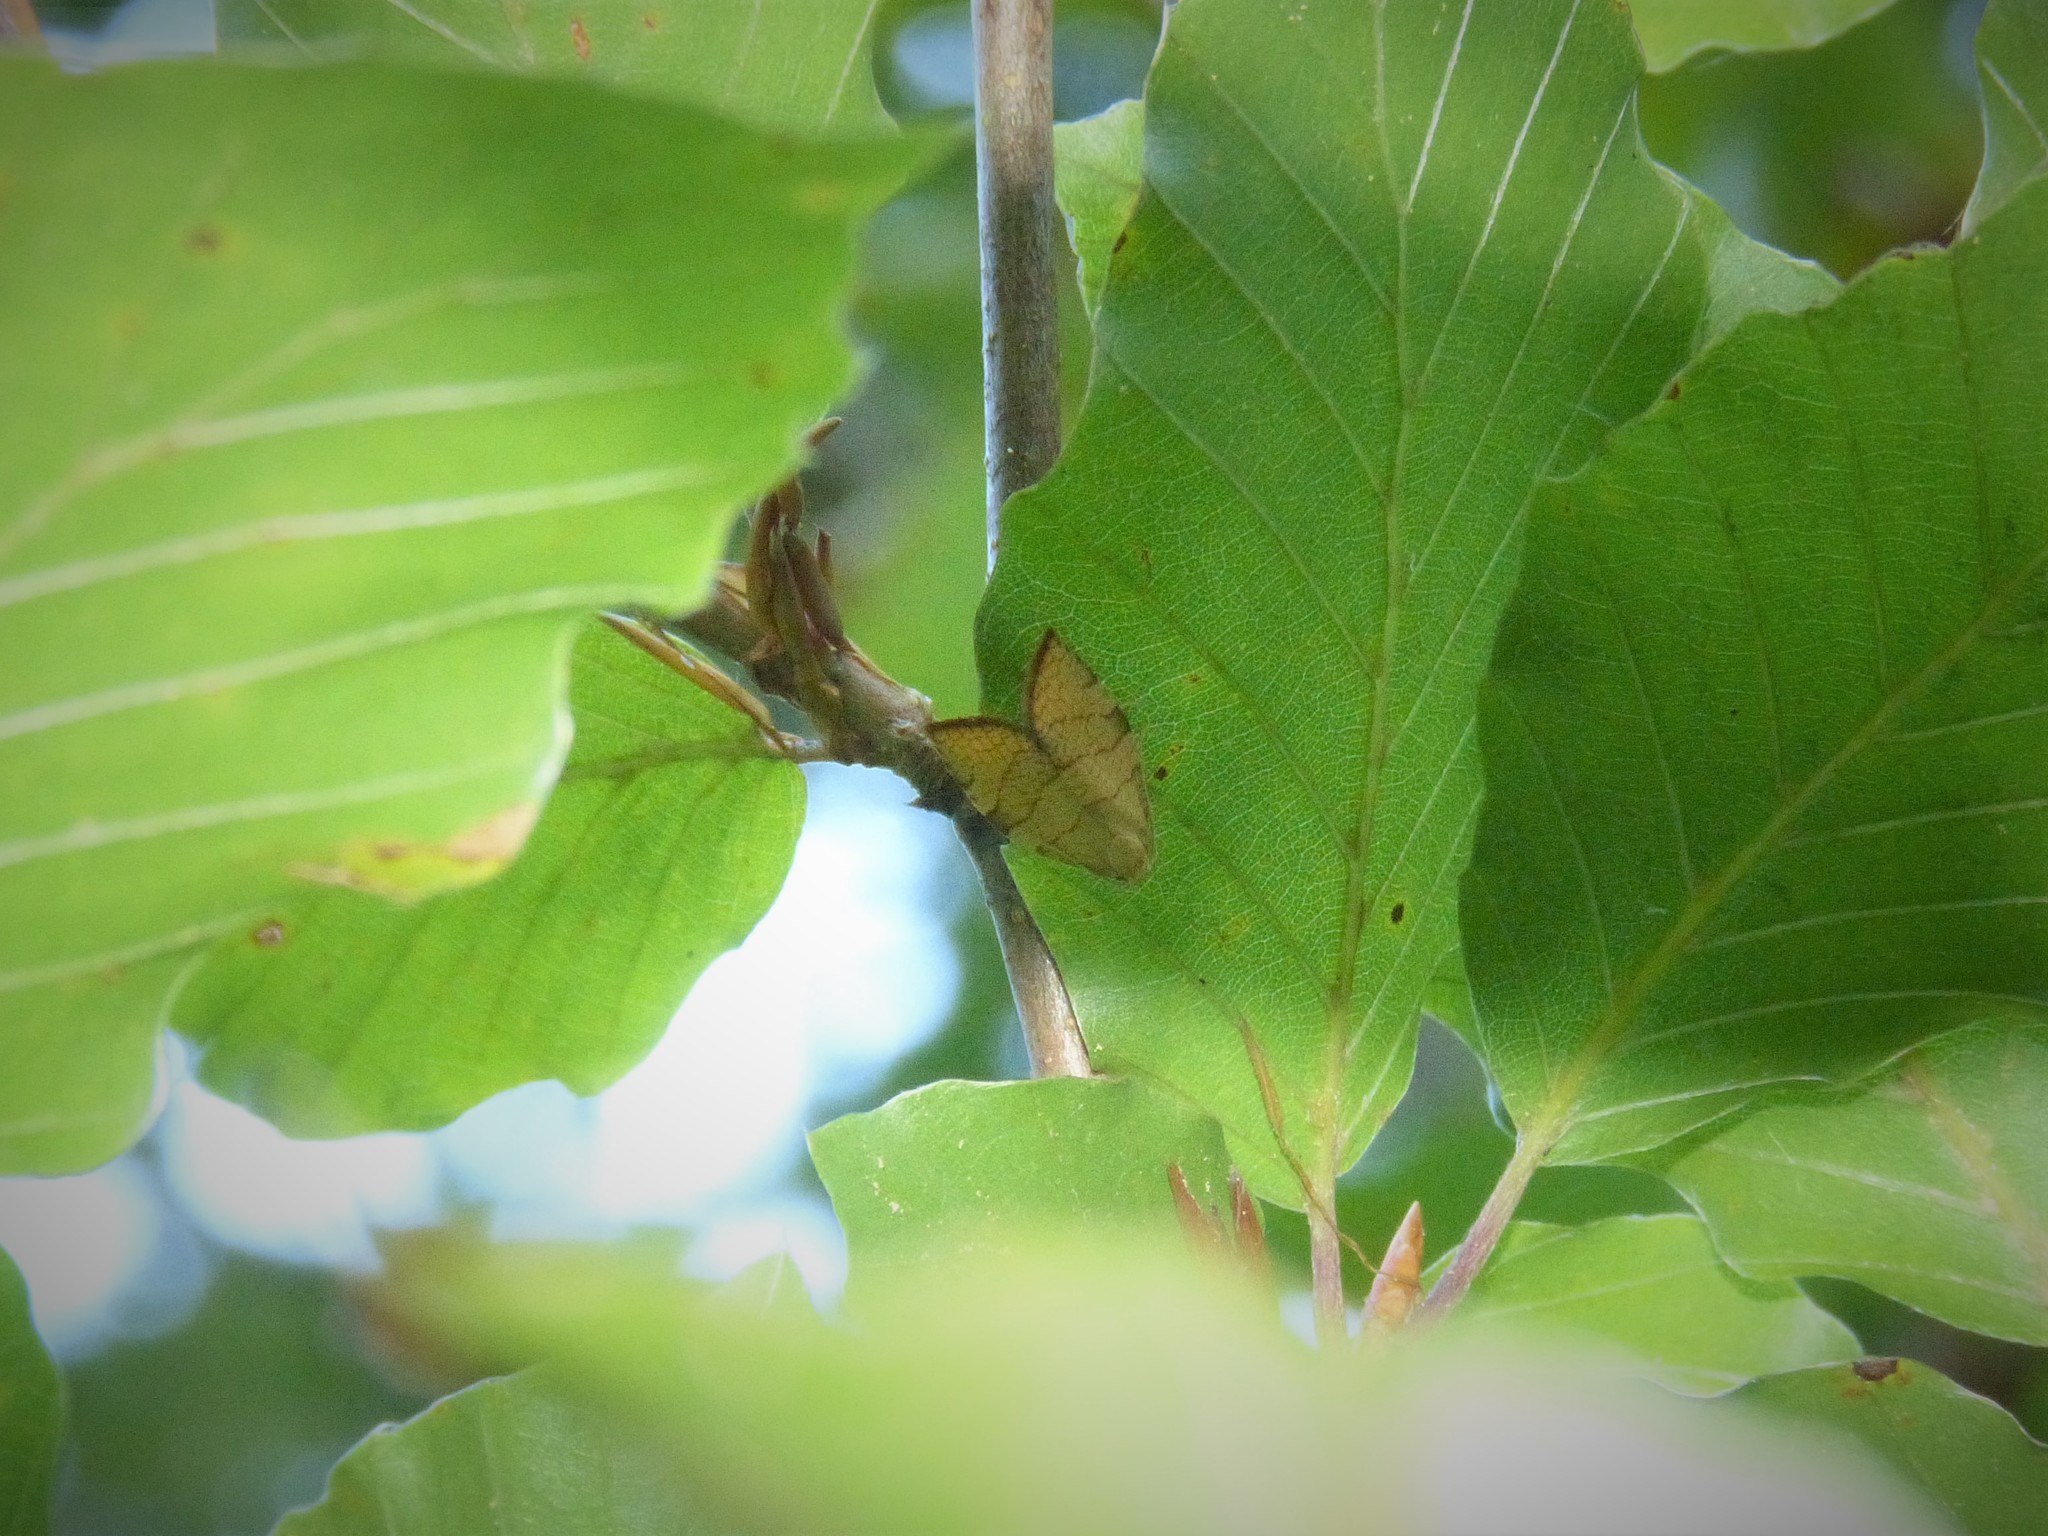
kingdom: Animalia
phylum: Arthropoda
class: Insecta
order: Lepidoptera
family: Tortricidae
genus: Pandemis
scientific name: Pandemis corylana
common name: Chequered fruit-tree tortrix
